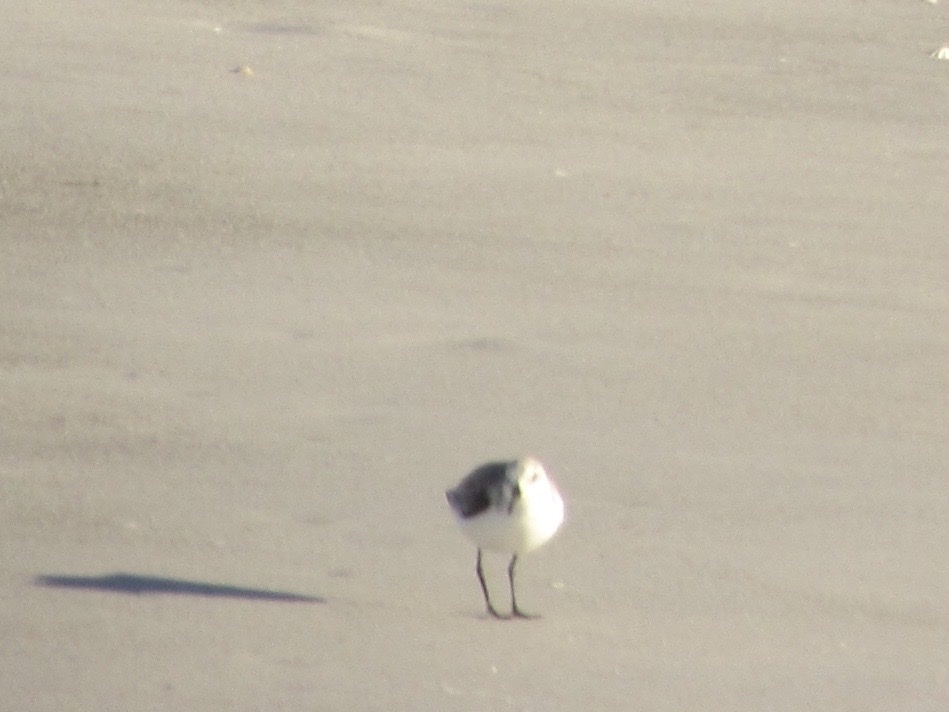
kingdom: Animalia
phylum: Chordata
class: Aves
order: Charadriiformes
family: Scolopacidae
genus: Calidris
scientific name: Calidris alba
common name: Sanderling
